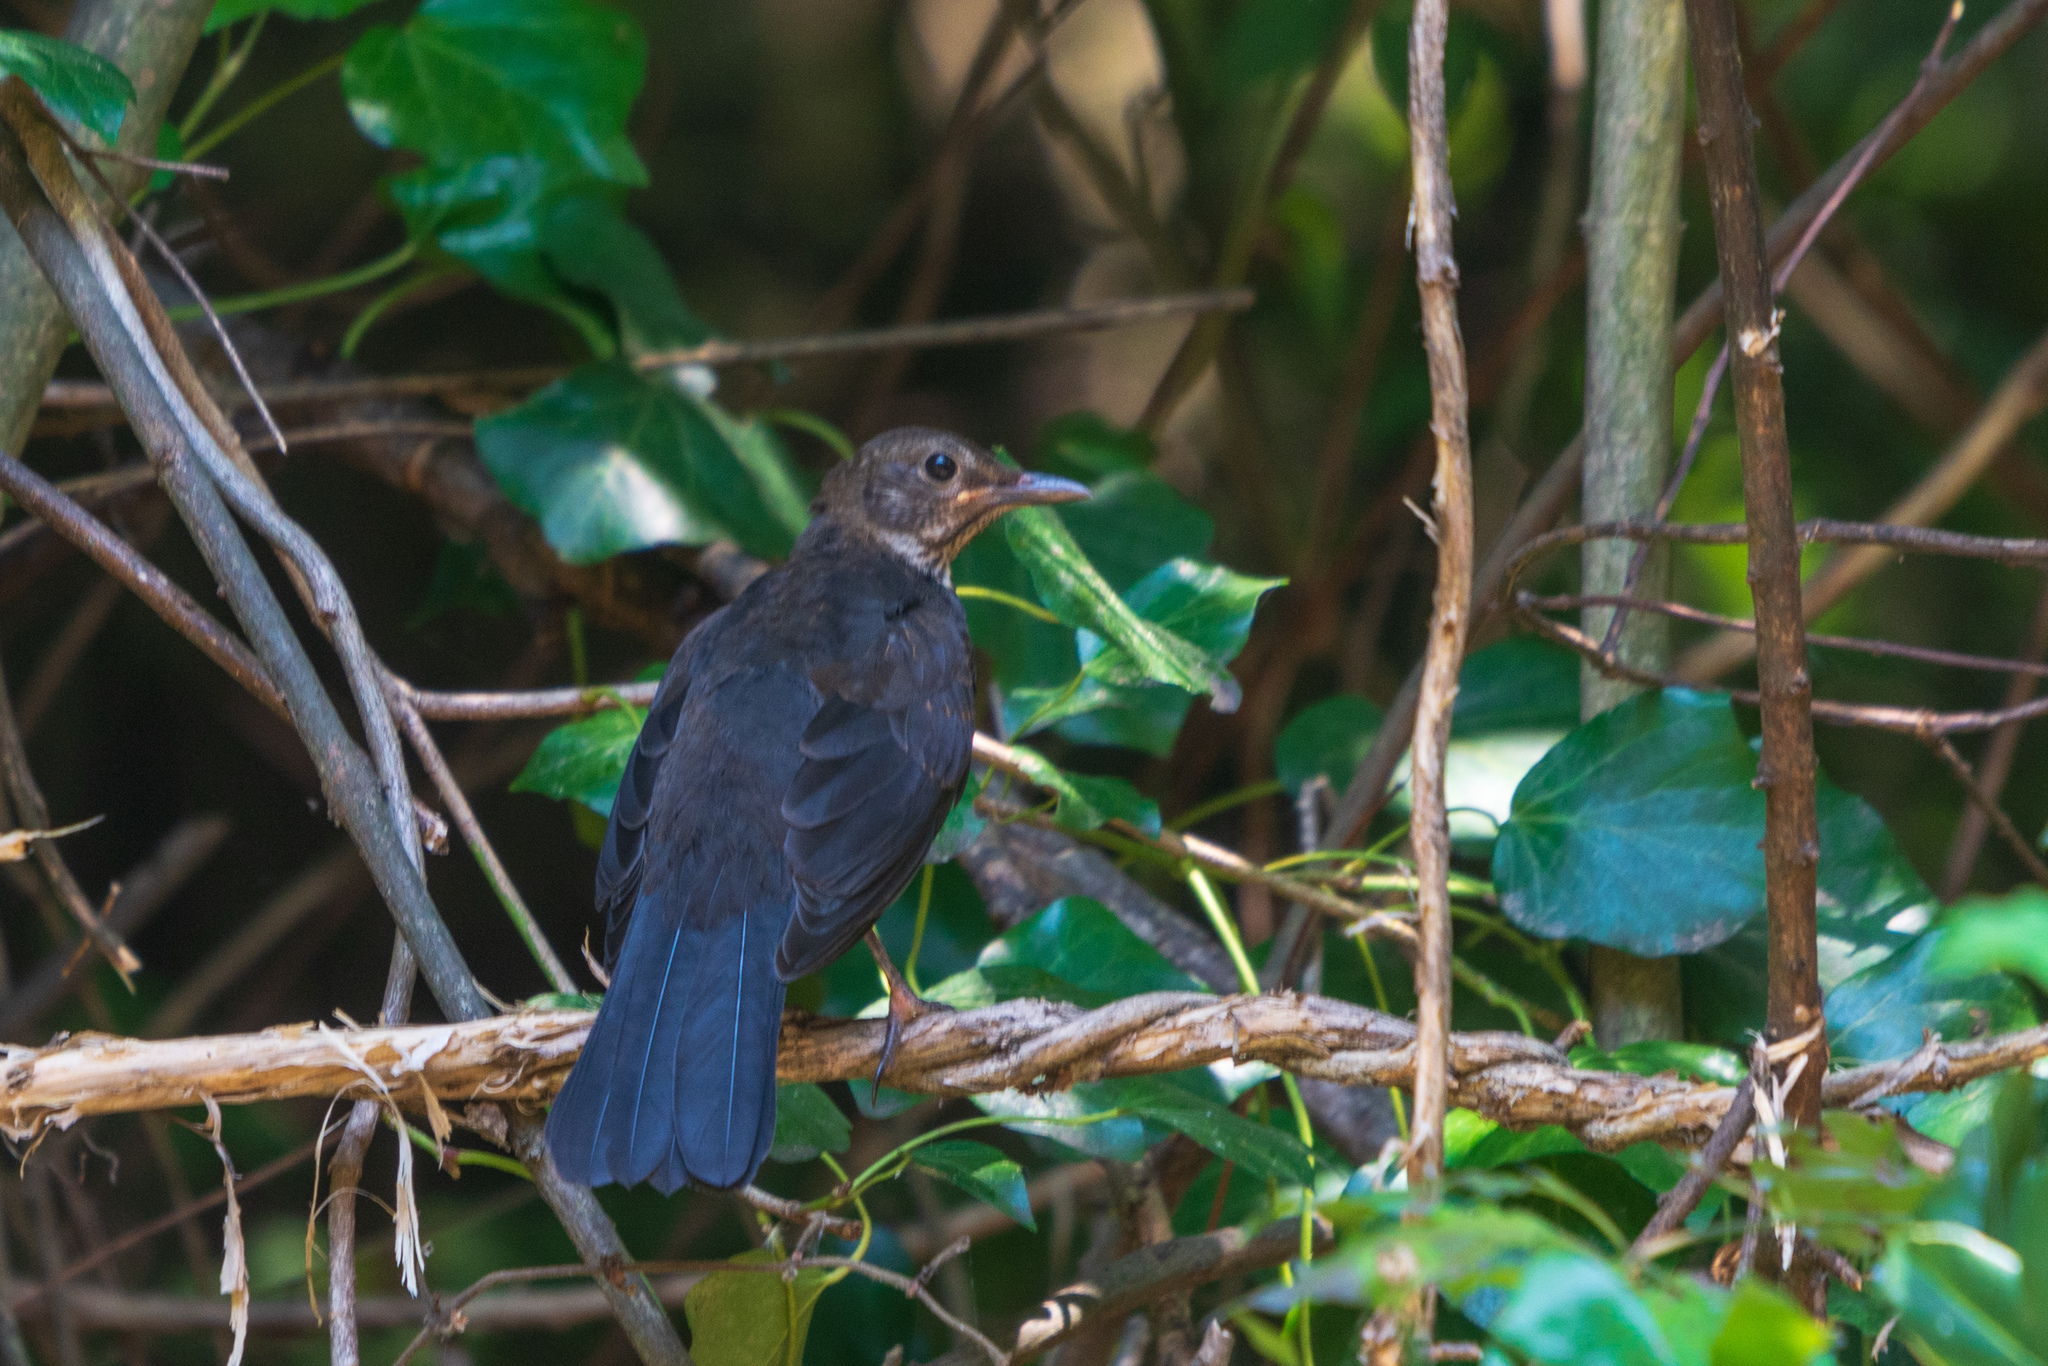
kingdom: Animalia
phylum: Chordata
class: Aves
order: Passeriformes
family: Turdidae
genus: Turdus
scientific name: Turdus merula
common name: Common blackbird
